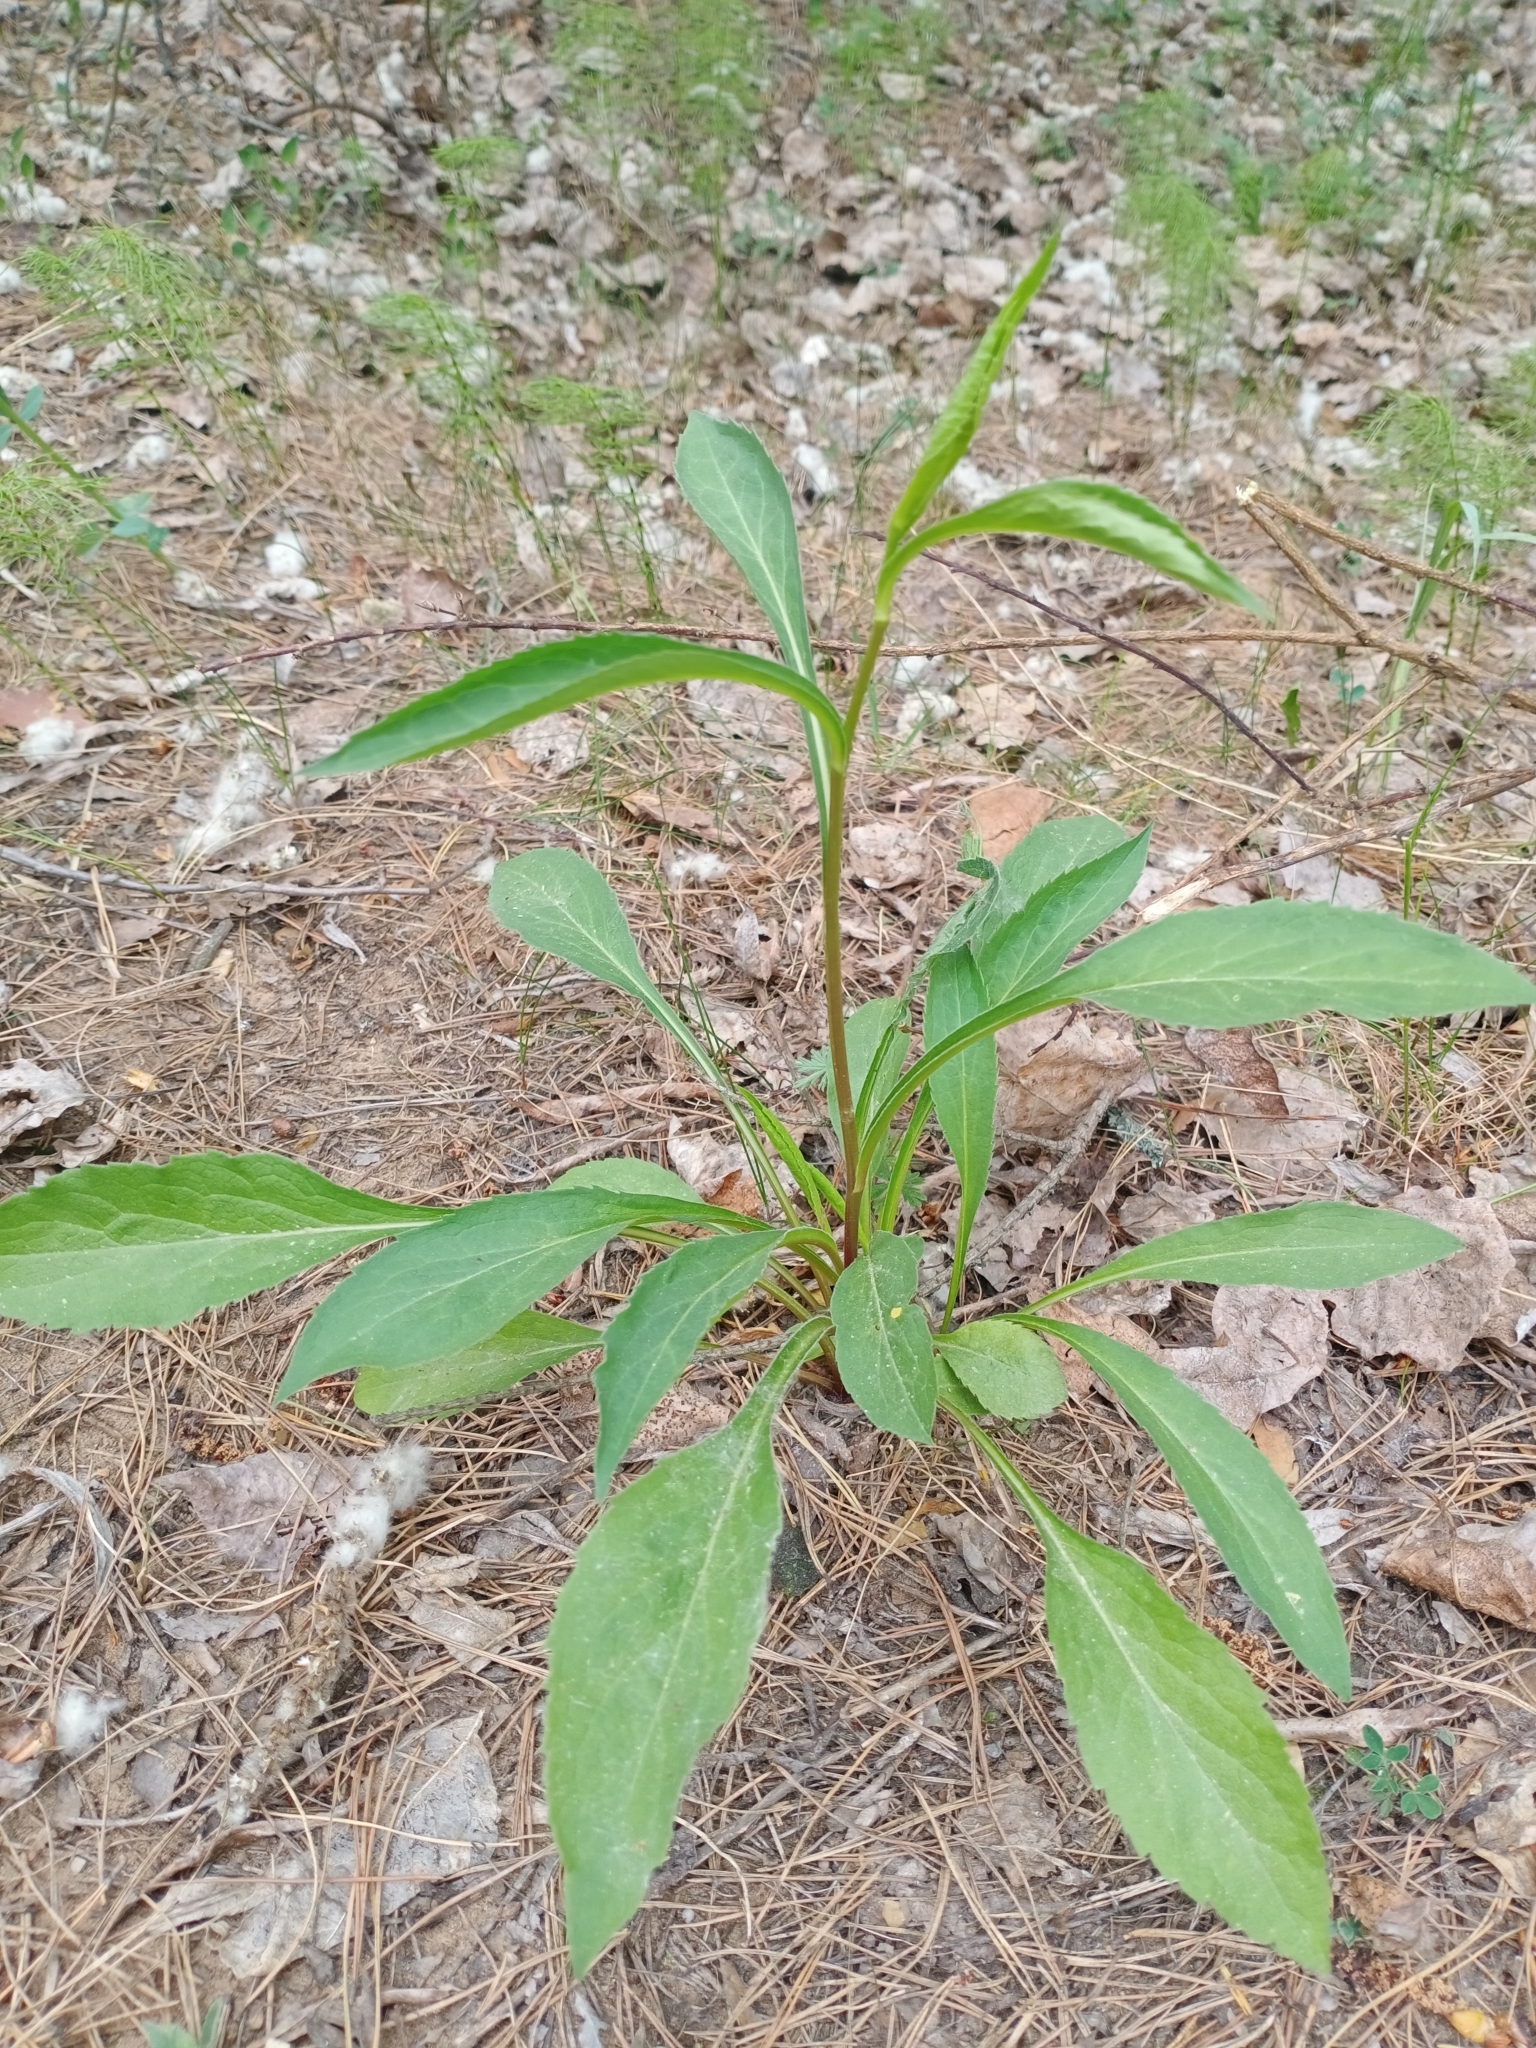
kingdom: Plantae
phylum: Tracheophyta
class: Magnoliopsida
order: Asterales
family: Asteraceae
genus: Solidago
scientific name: Solidago virgaurea
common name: Goldenrod
